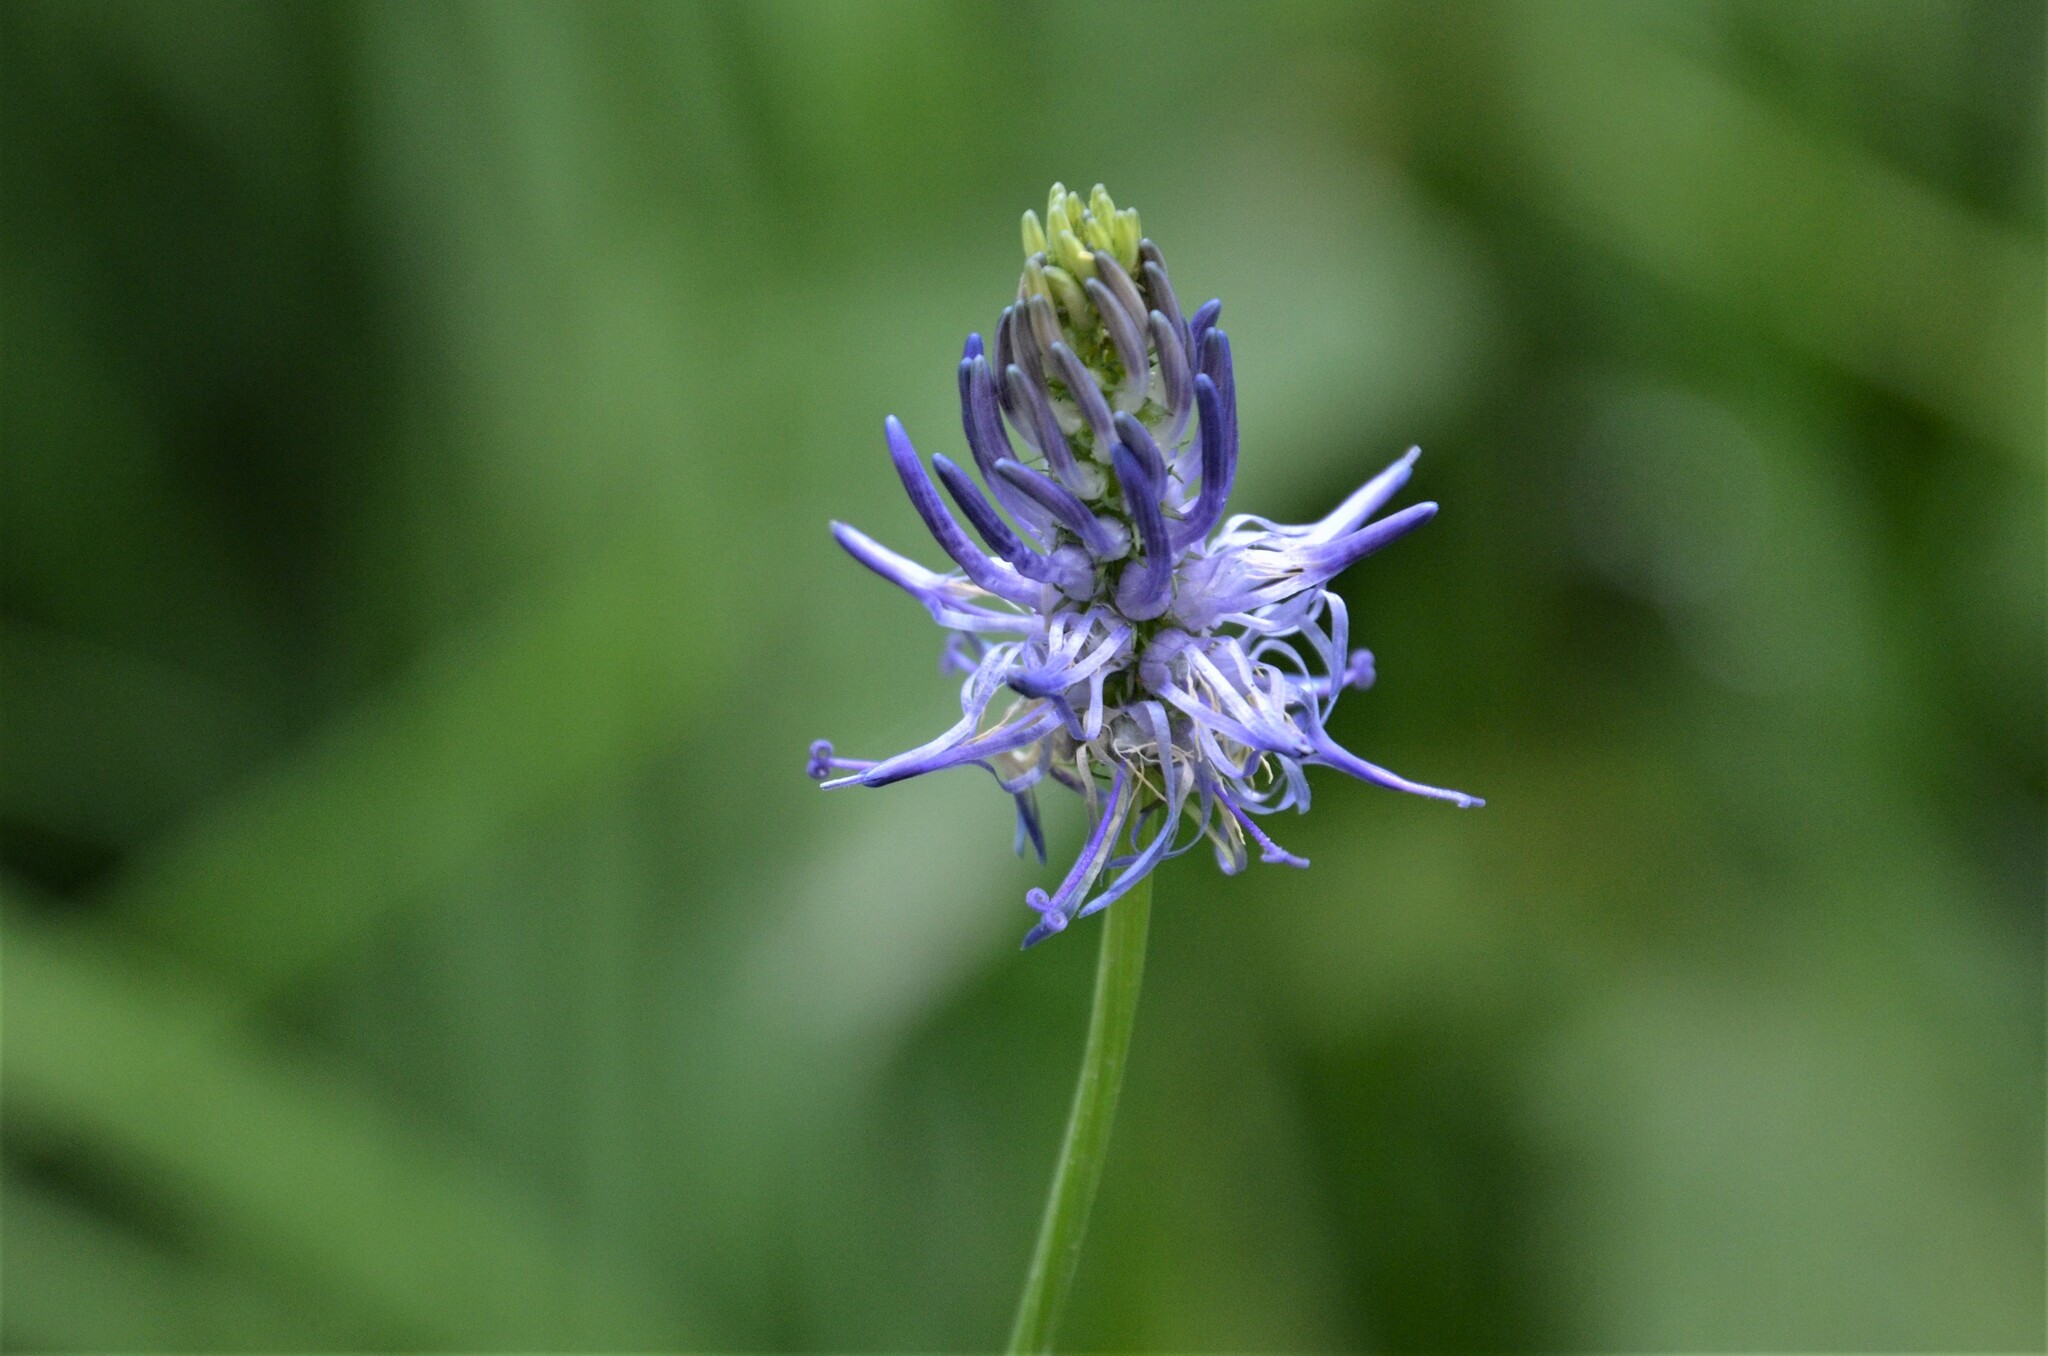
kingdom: Plantae
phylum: Tracheophyta
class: Magnoliopsida
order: Asterales
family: Campanulaceae
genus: Phyteuma
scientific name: Phyteuma persicifolium
